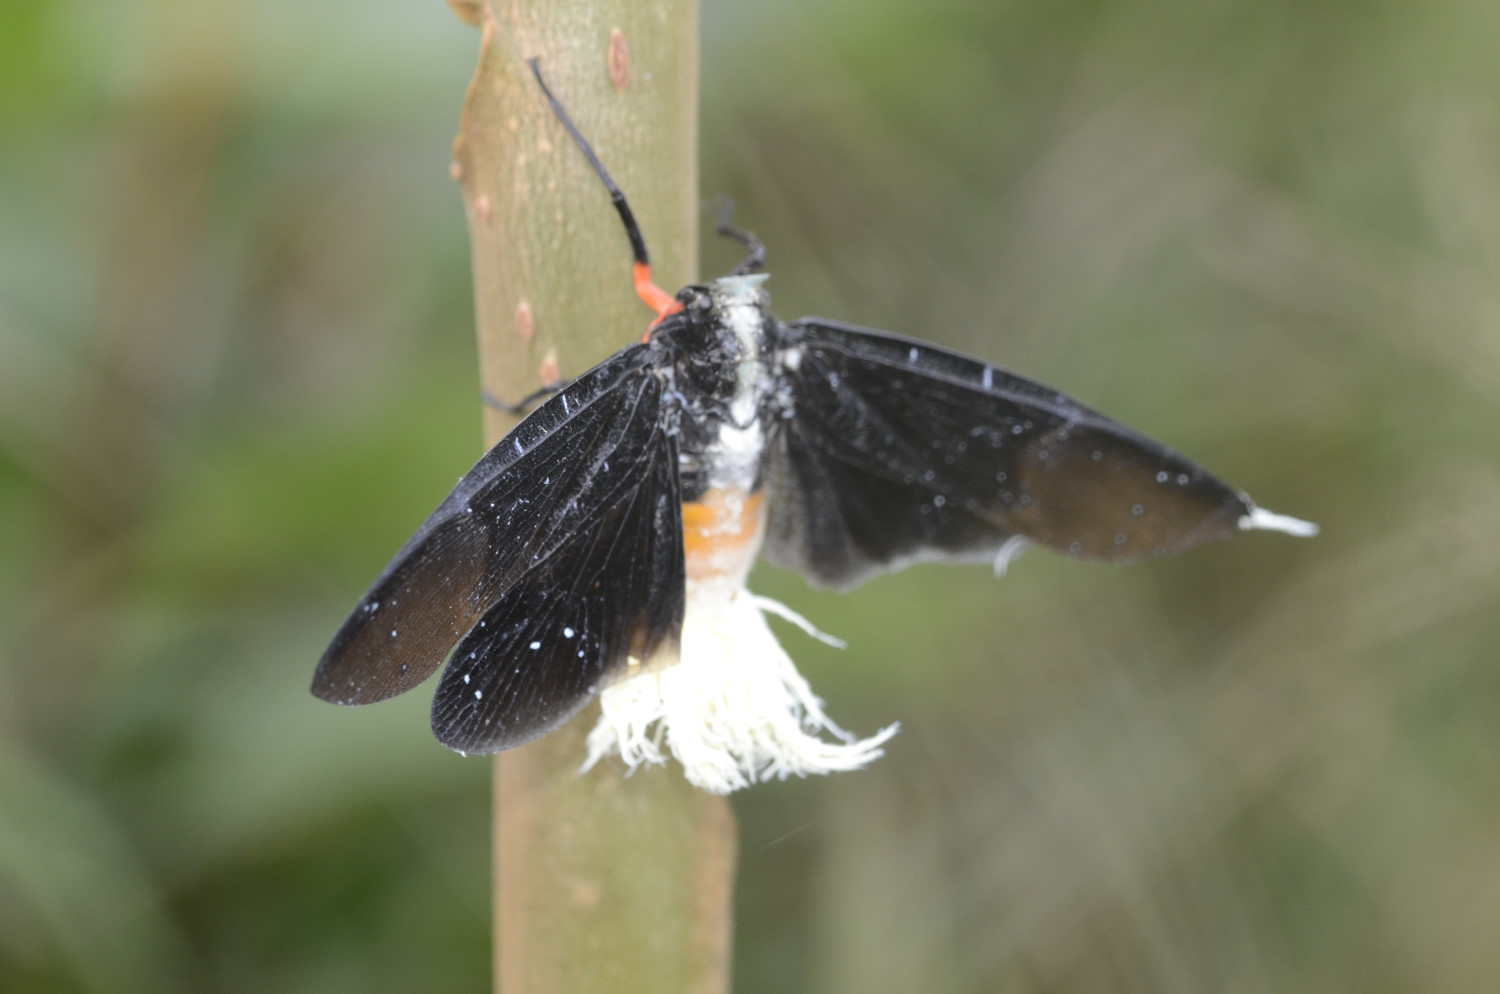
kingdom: Animalia
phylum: Arthropoda
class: Insecta
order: Hemiptera
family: Fulgoridae
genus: Menenia
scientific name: Menenia terebrifera
